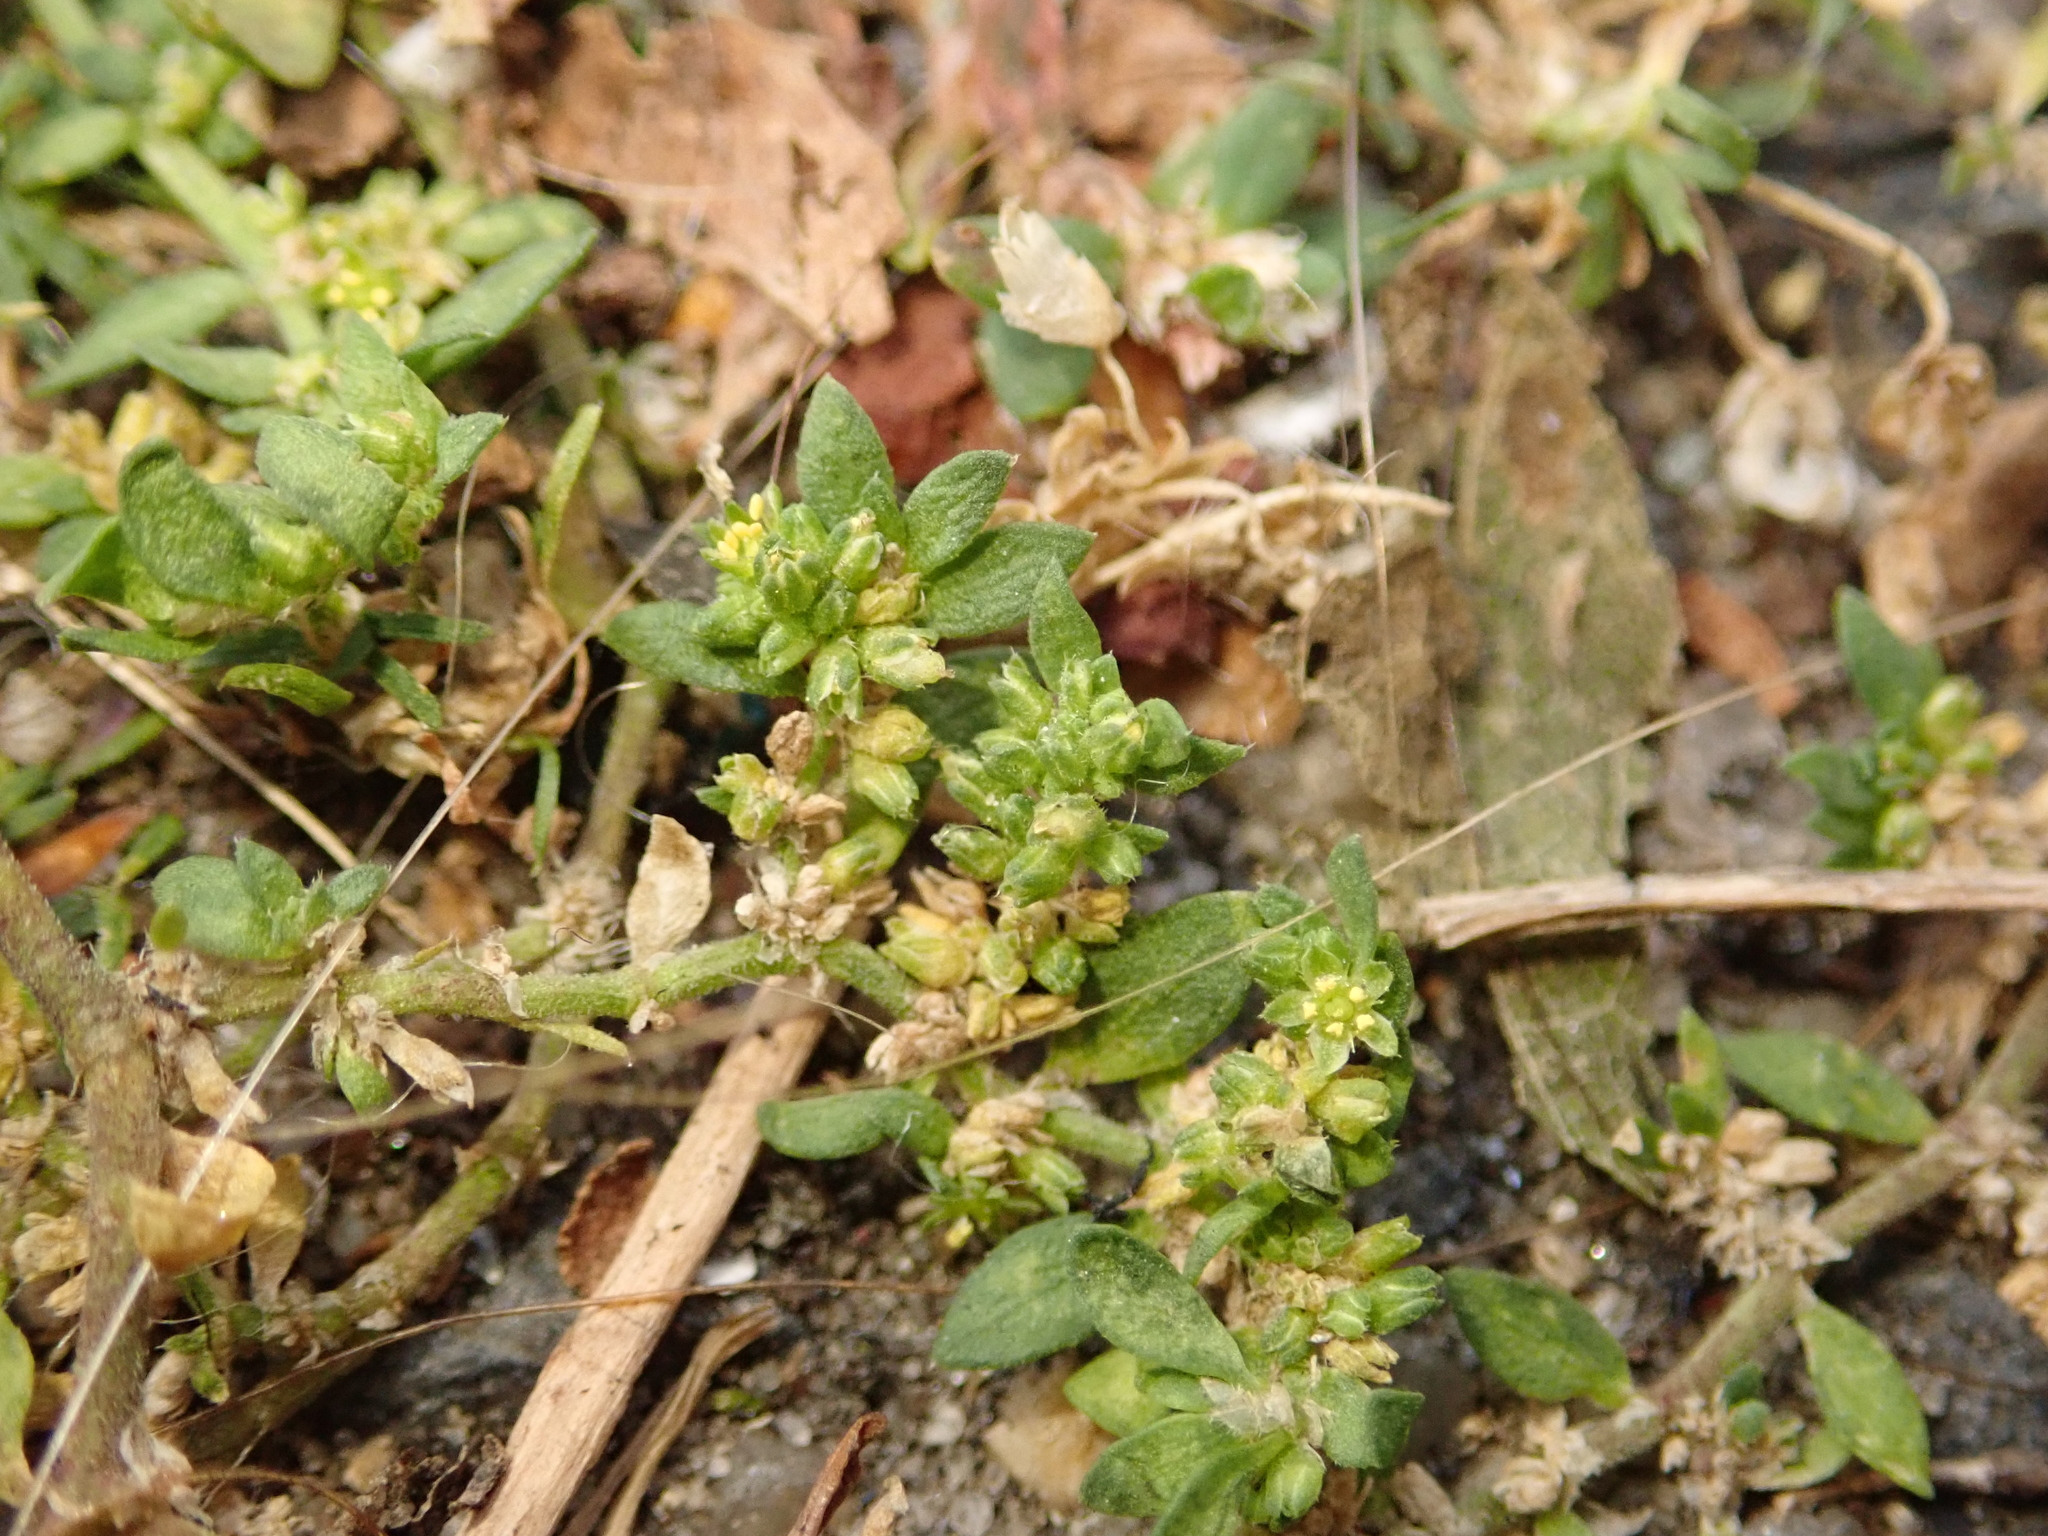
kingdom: Plantae
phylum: Tracheophyta
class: Magnoliopsida
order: Caryophyllales
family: Caryophyllaceae
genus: Herniaria
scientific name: Herniaria glabra
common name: Smooth rupturewort
